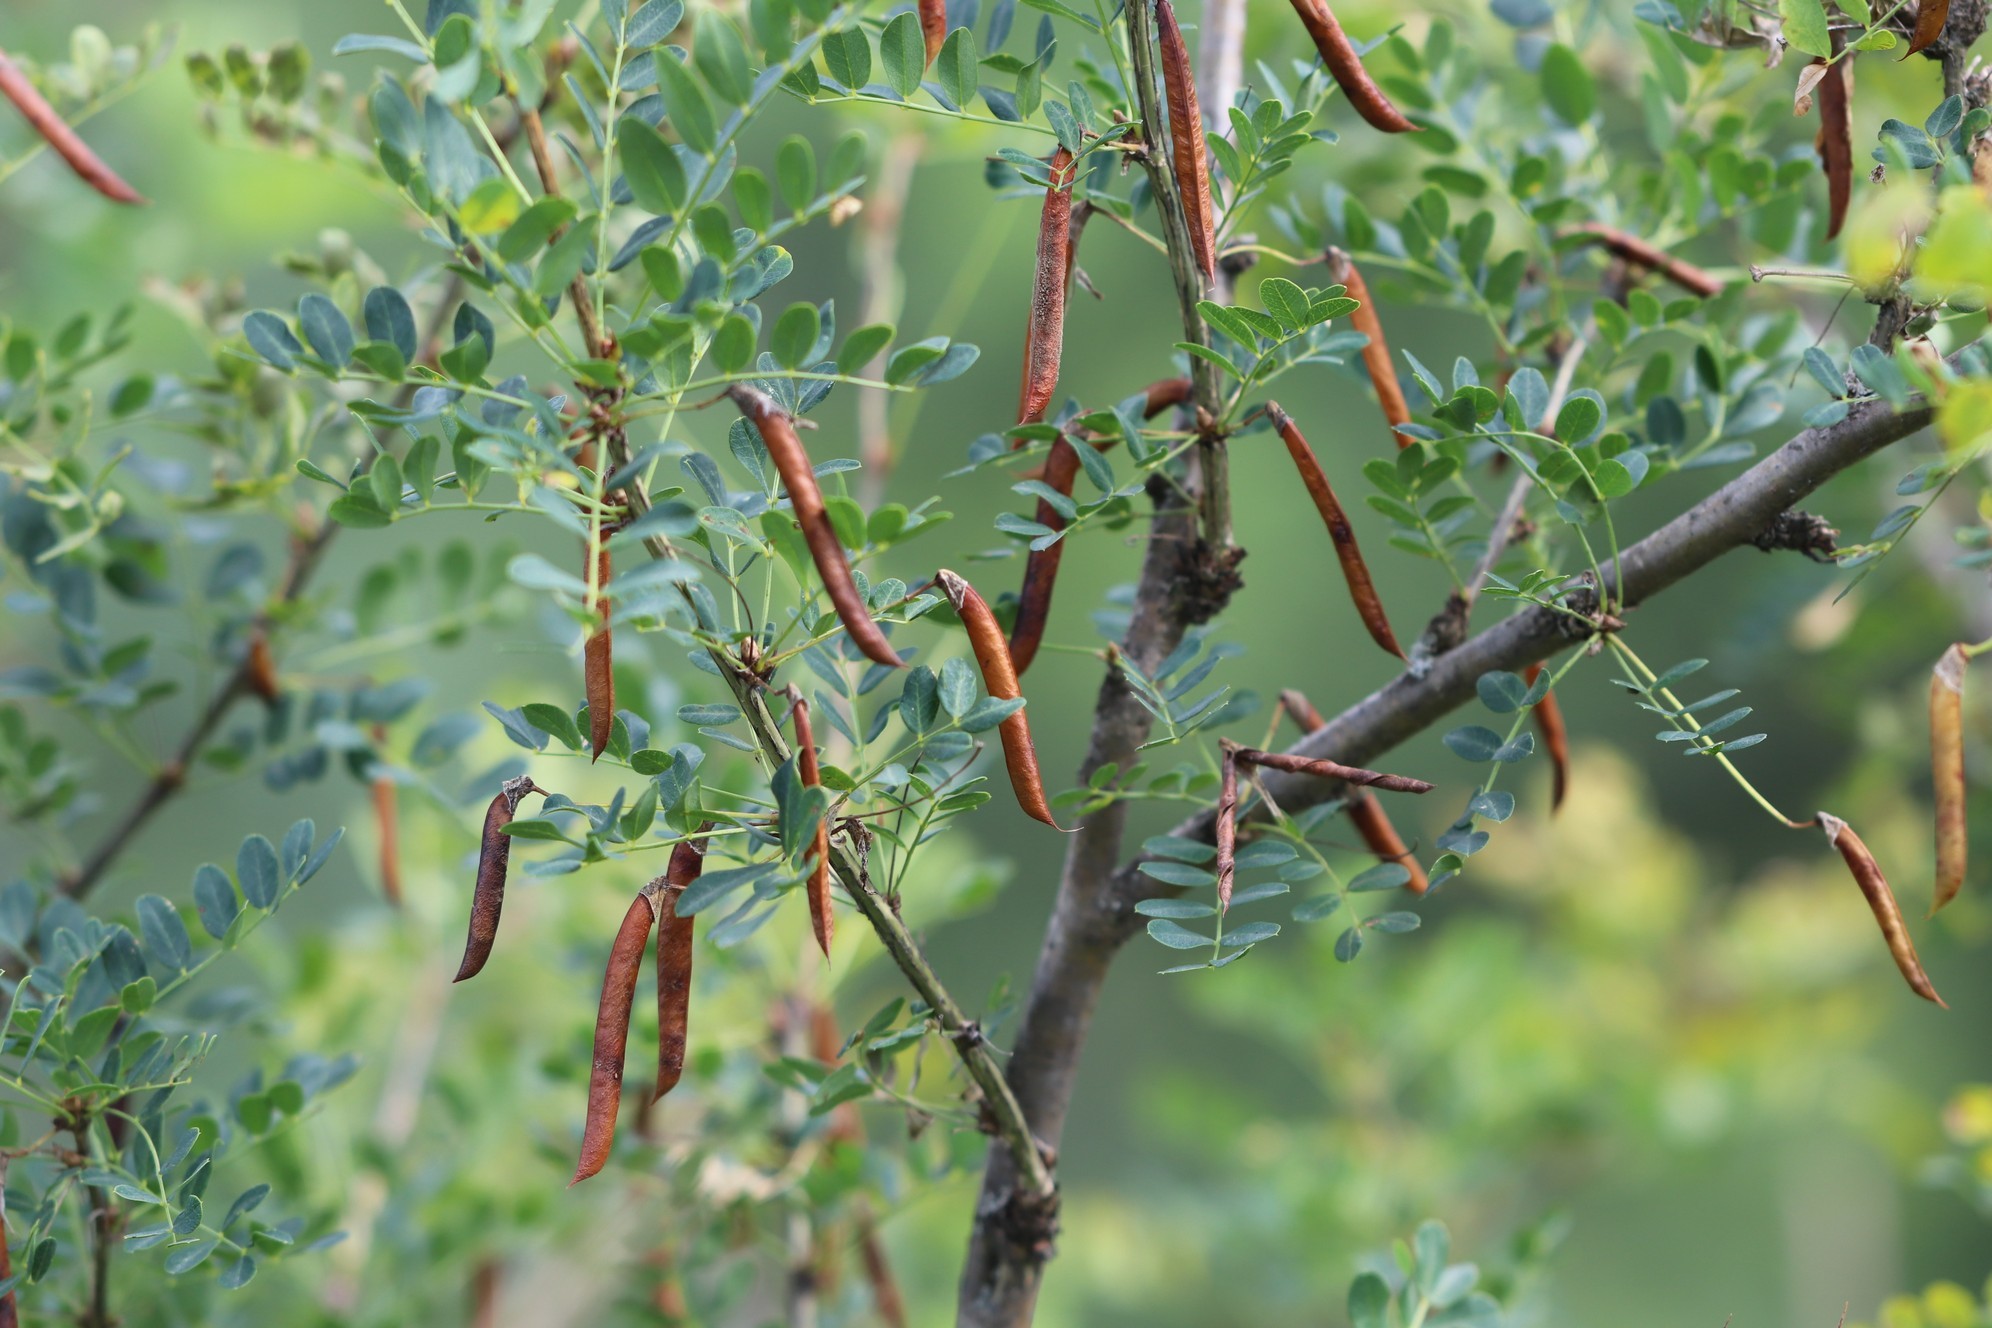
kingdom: Plantae
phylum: Tracheophyta
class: Magnoliopsida
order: Fabales
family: Fabaceae
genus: Caragana
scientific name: Caragana arborescens
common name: Siberian peashrub
